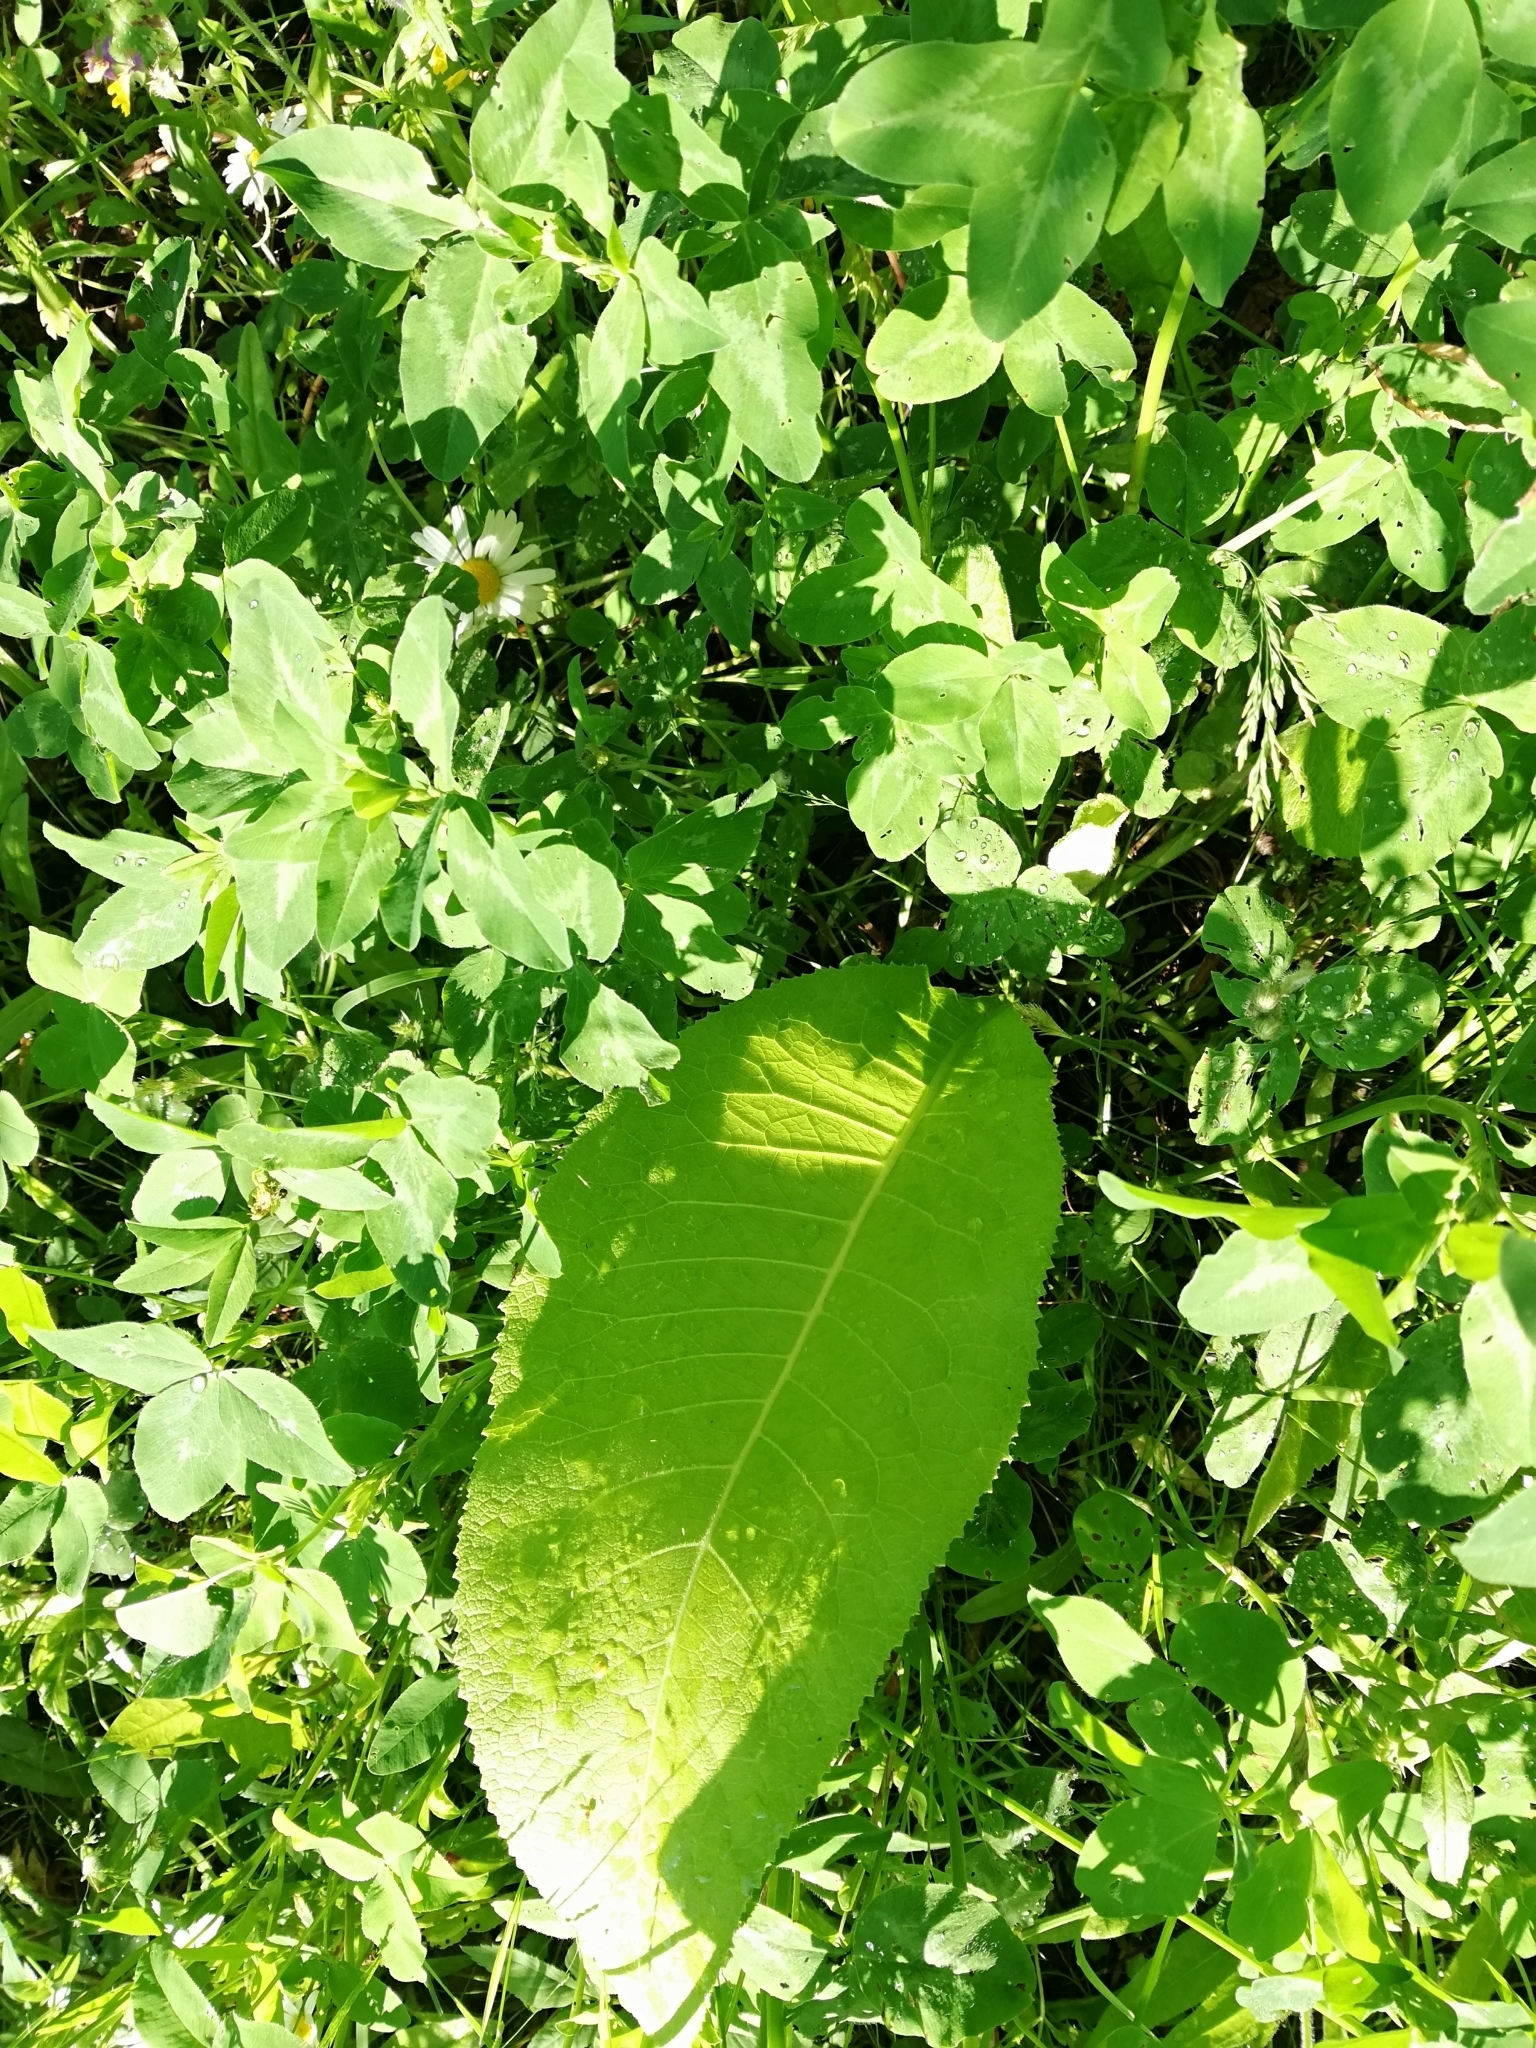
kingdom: Plantae
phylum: Tracheophyta
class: Magnoliopsida
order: Asterales
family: Asteraceae
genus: Inula
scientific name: Inula helenium
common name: Elecampane
